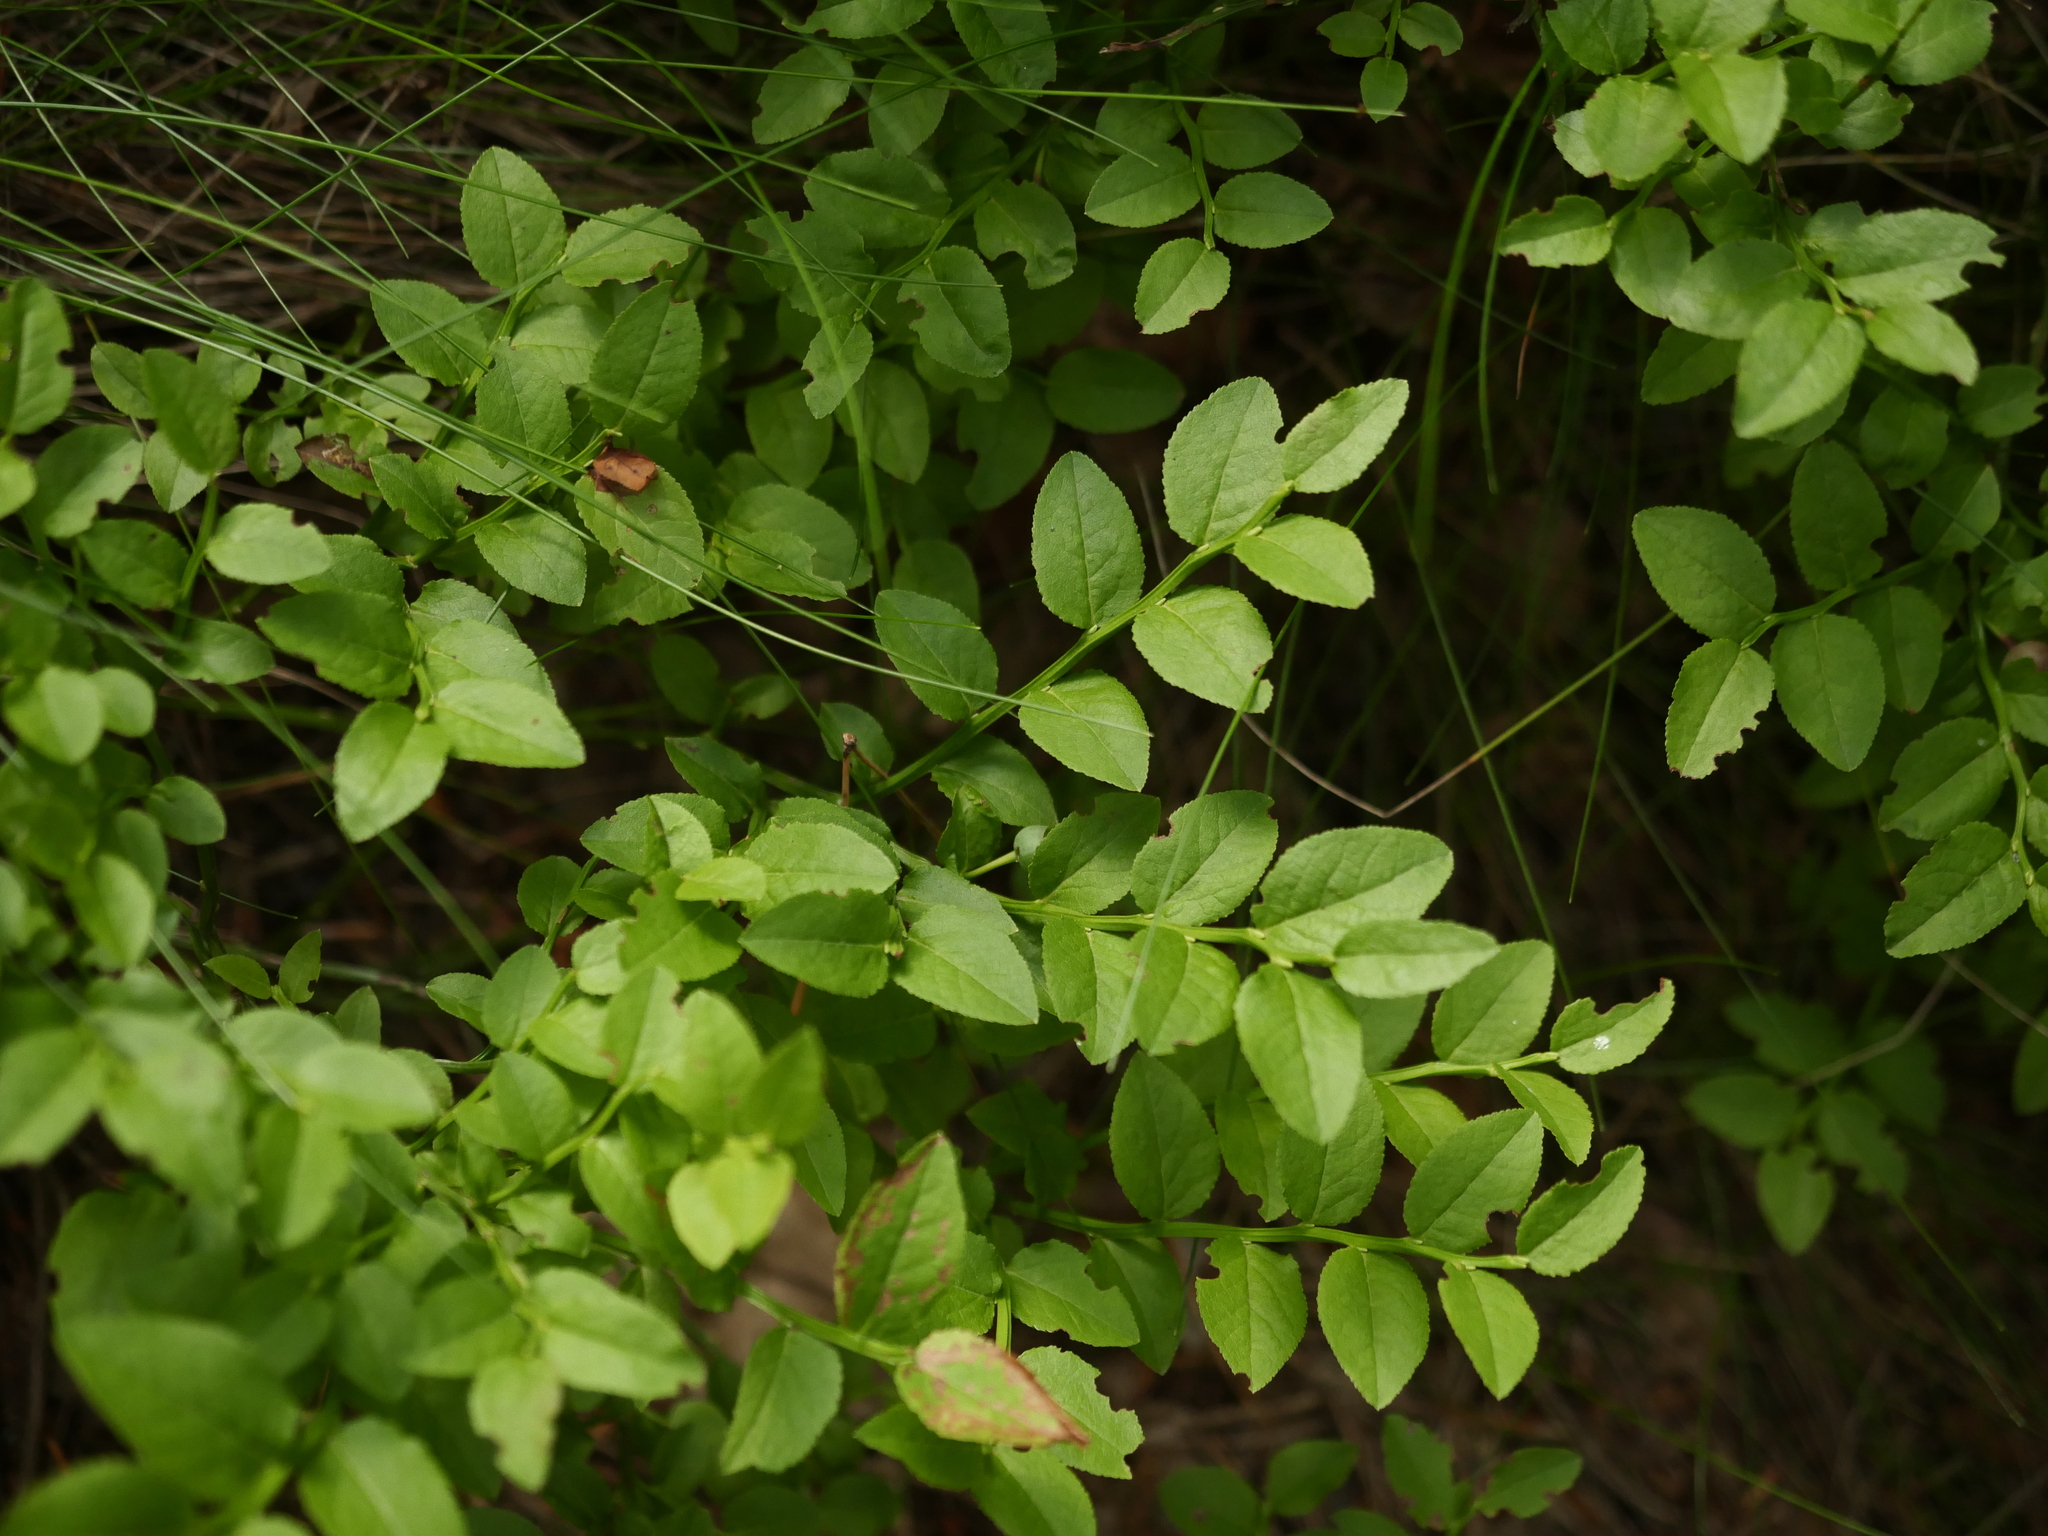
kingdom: Plantae
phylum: Tracheophyta
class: Magnoliopsida
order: Ericales
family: Ericaceae
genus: Vaccinium
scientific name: Vaccinium myrtillus
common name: Bilberry
